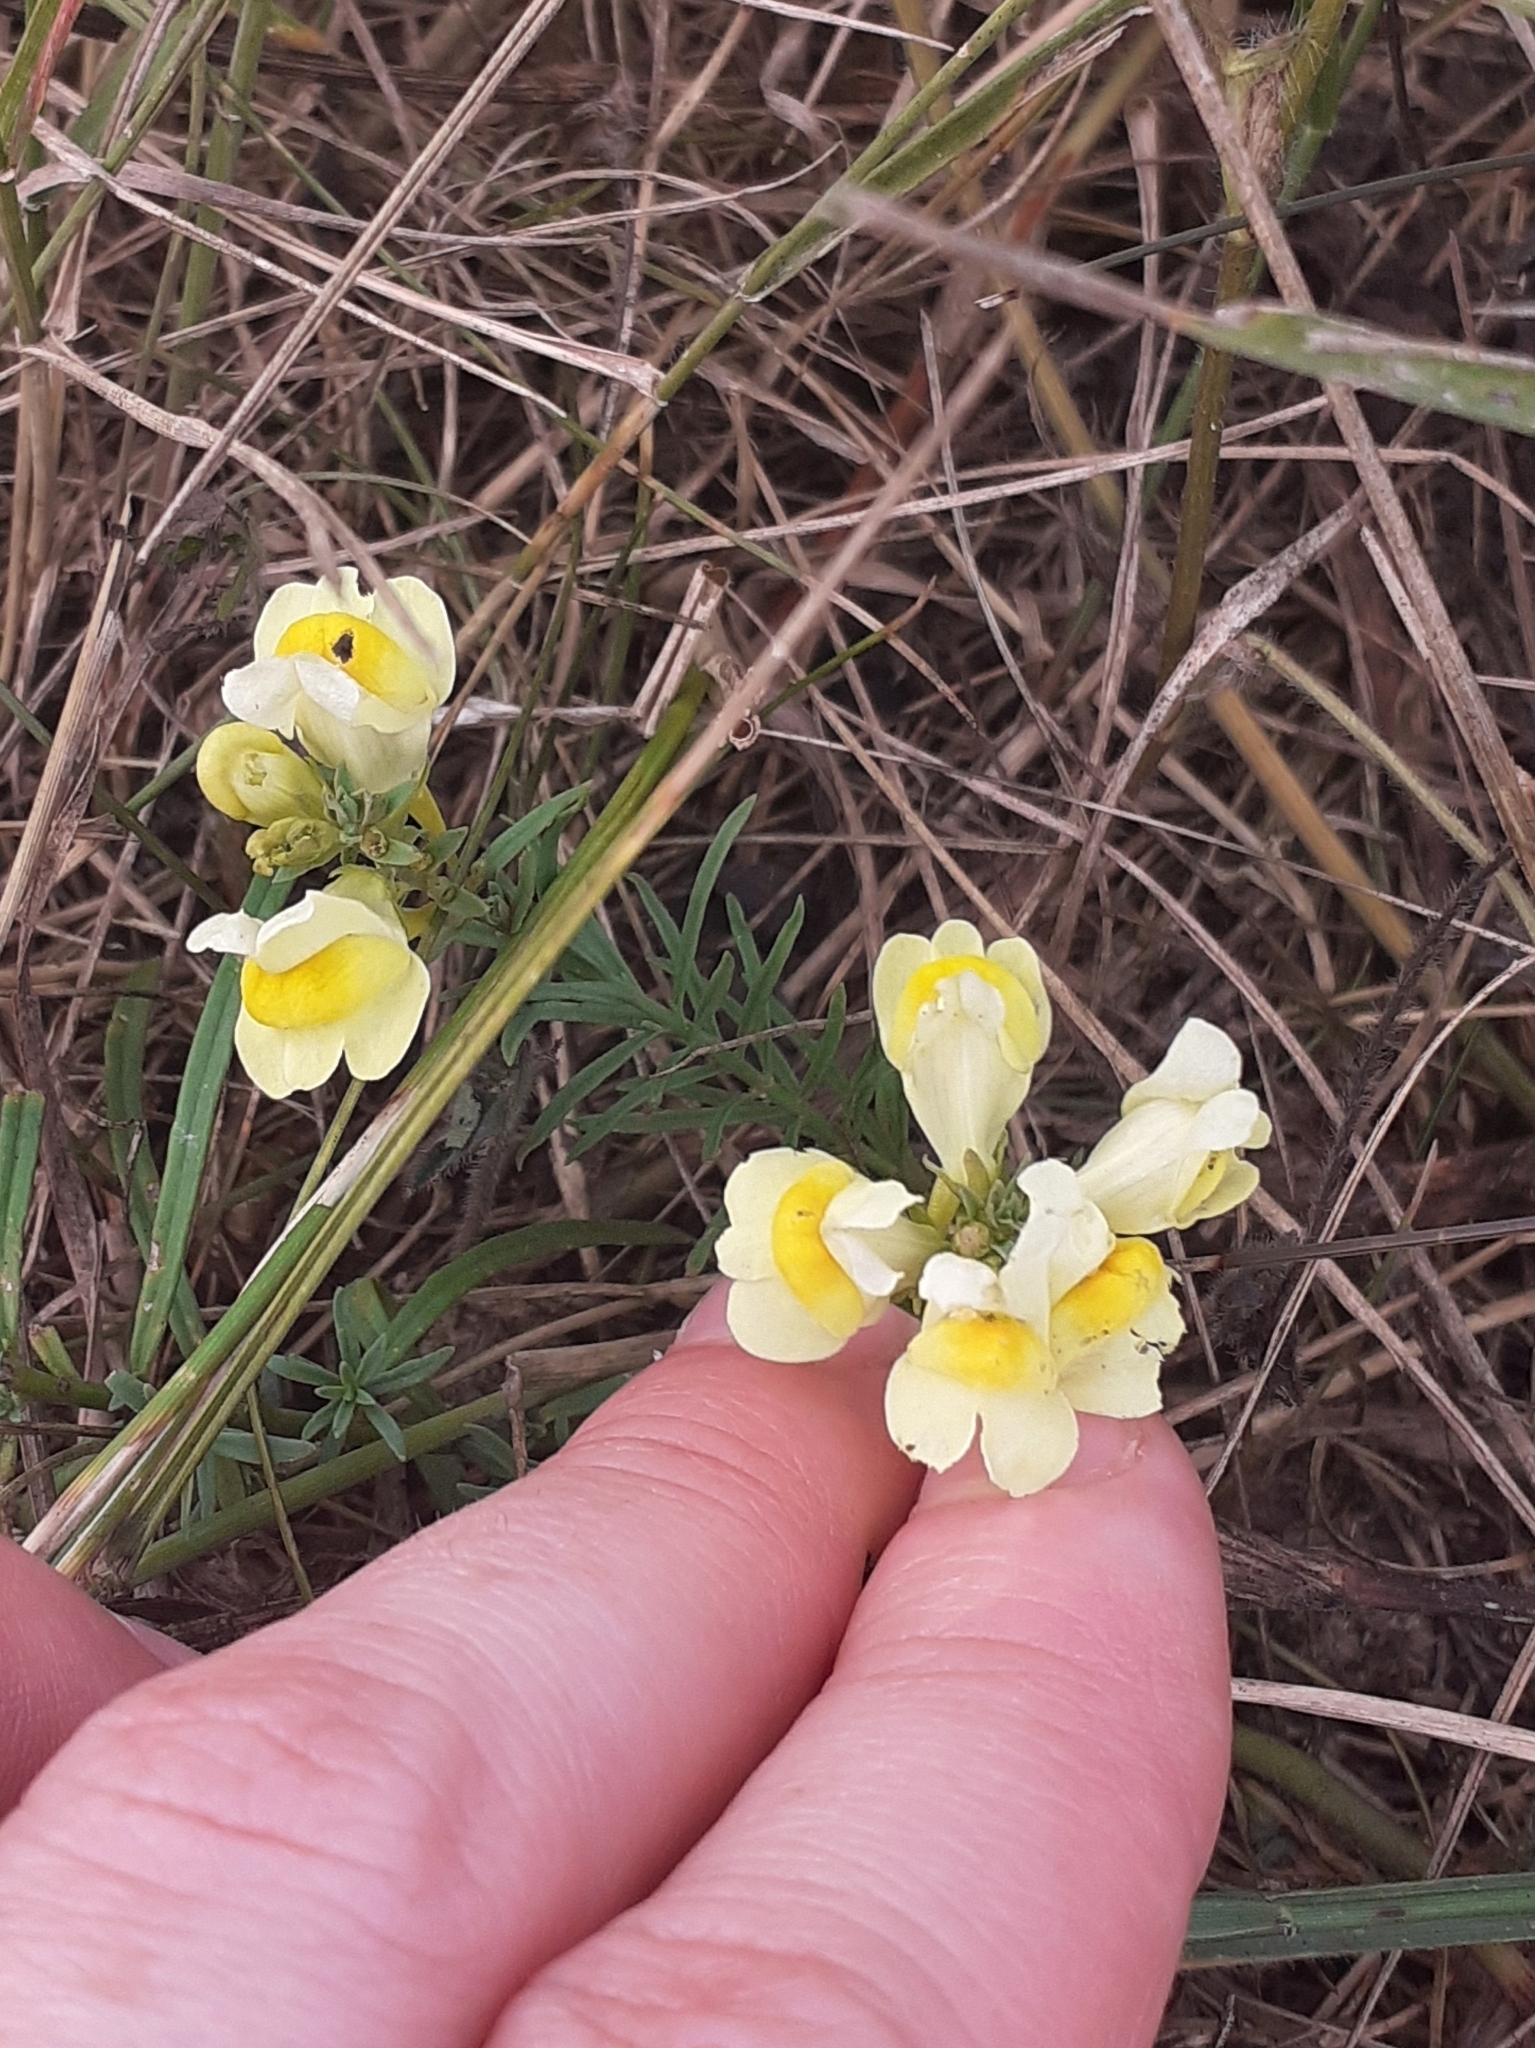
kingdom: Plantae
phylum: Tracheophyta
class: Magnoliopsida
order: Lamiales
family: Plantaginaceae
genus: Linaria
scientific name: Linaria vulgaris
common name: Butter and eggs
